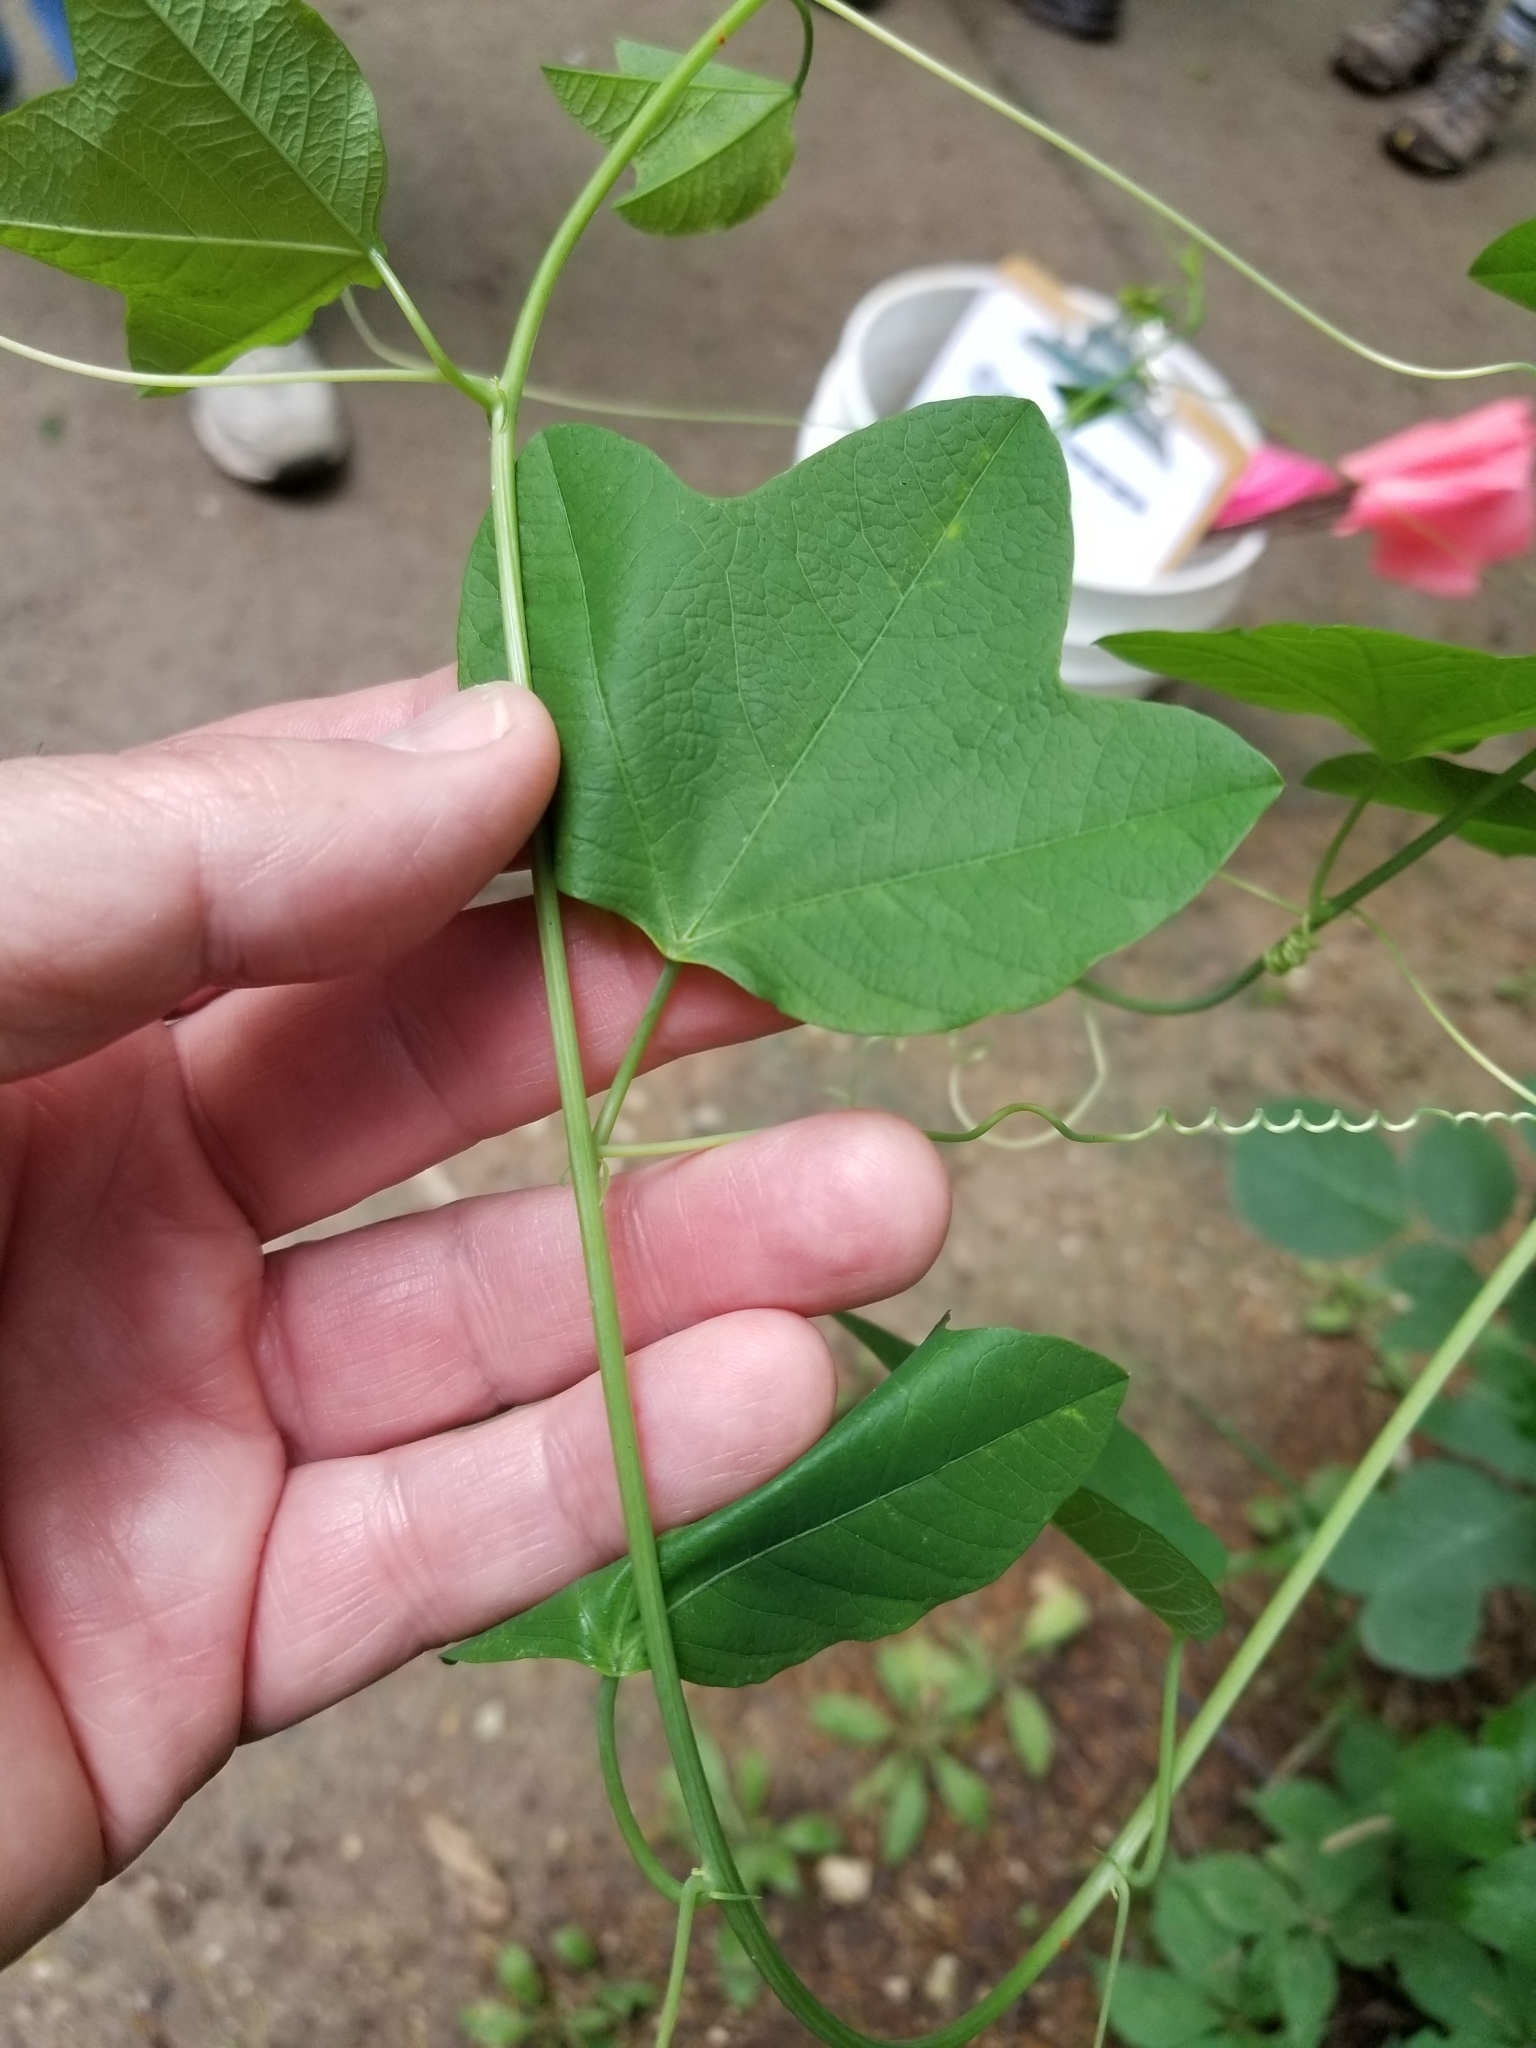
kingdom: Plantae
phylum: Tracheophyta
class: Magnoliopsida
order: Malpighiales
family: Passifloraceae
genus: Passiflora
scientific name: Passiflora lutea
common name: Yellow passionflower
